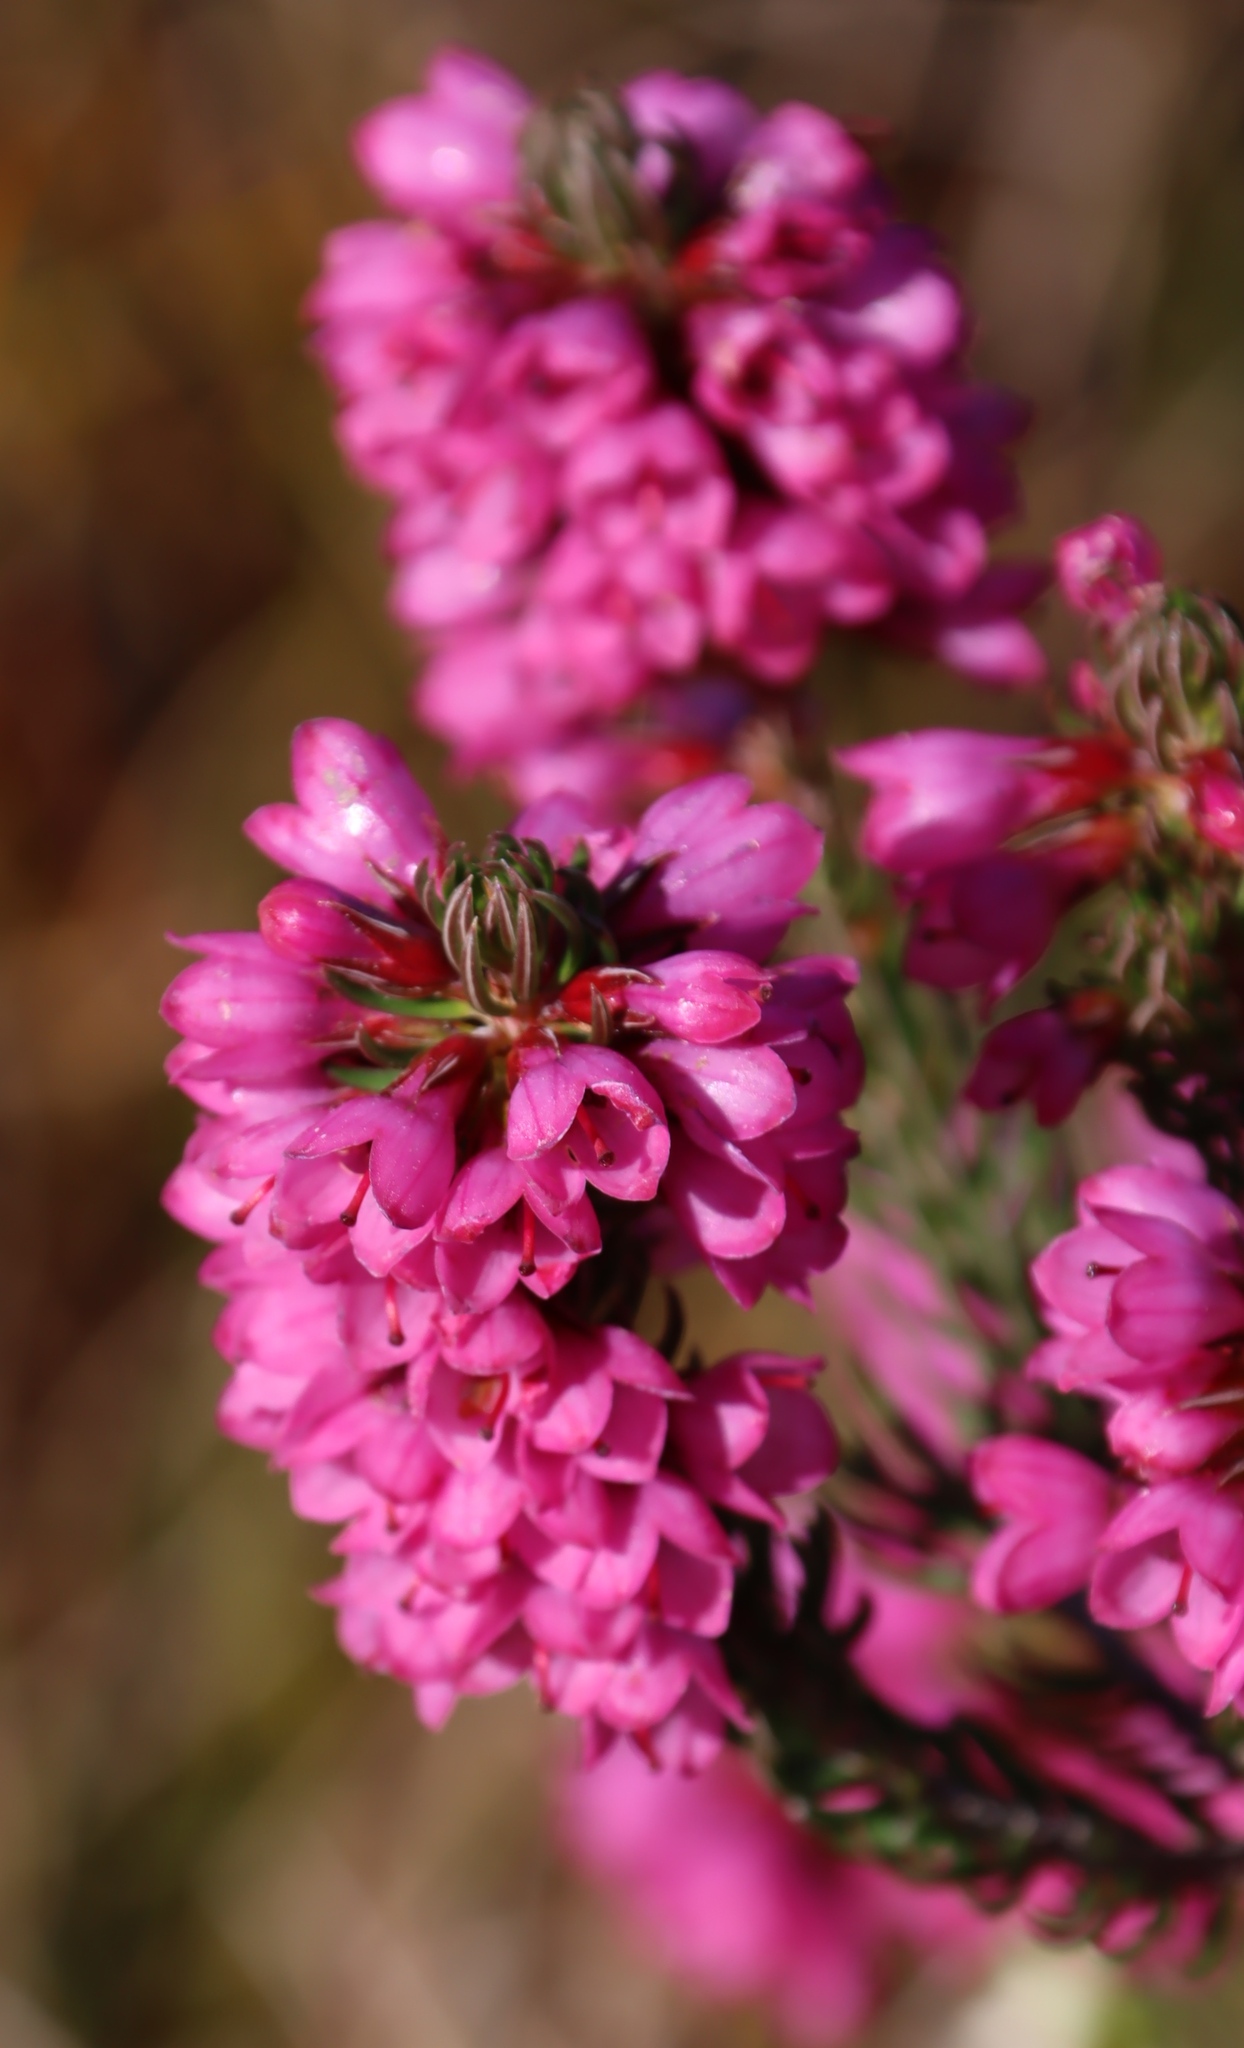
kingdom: Plantae
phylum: Tracheophyta
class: Magnoliopsida
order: Ericales
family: Ericaceae
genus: Erica
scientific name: Erica abietina
